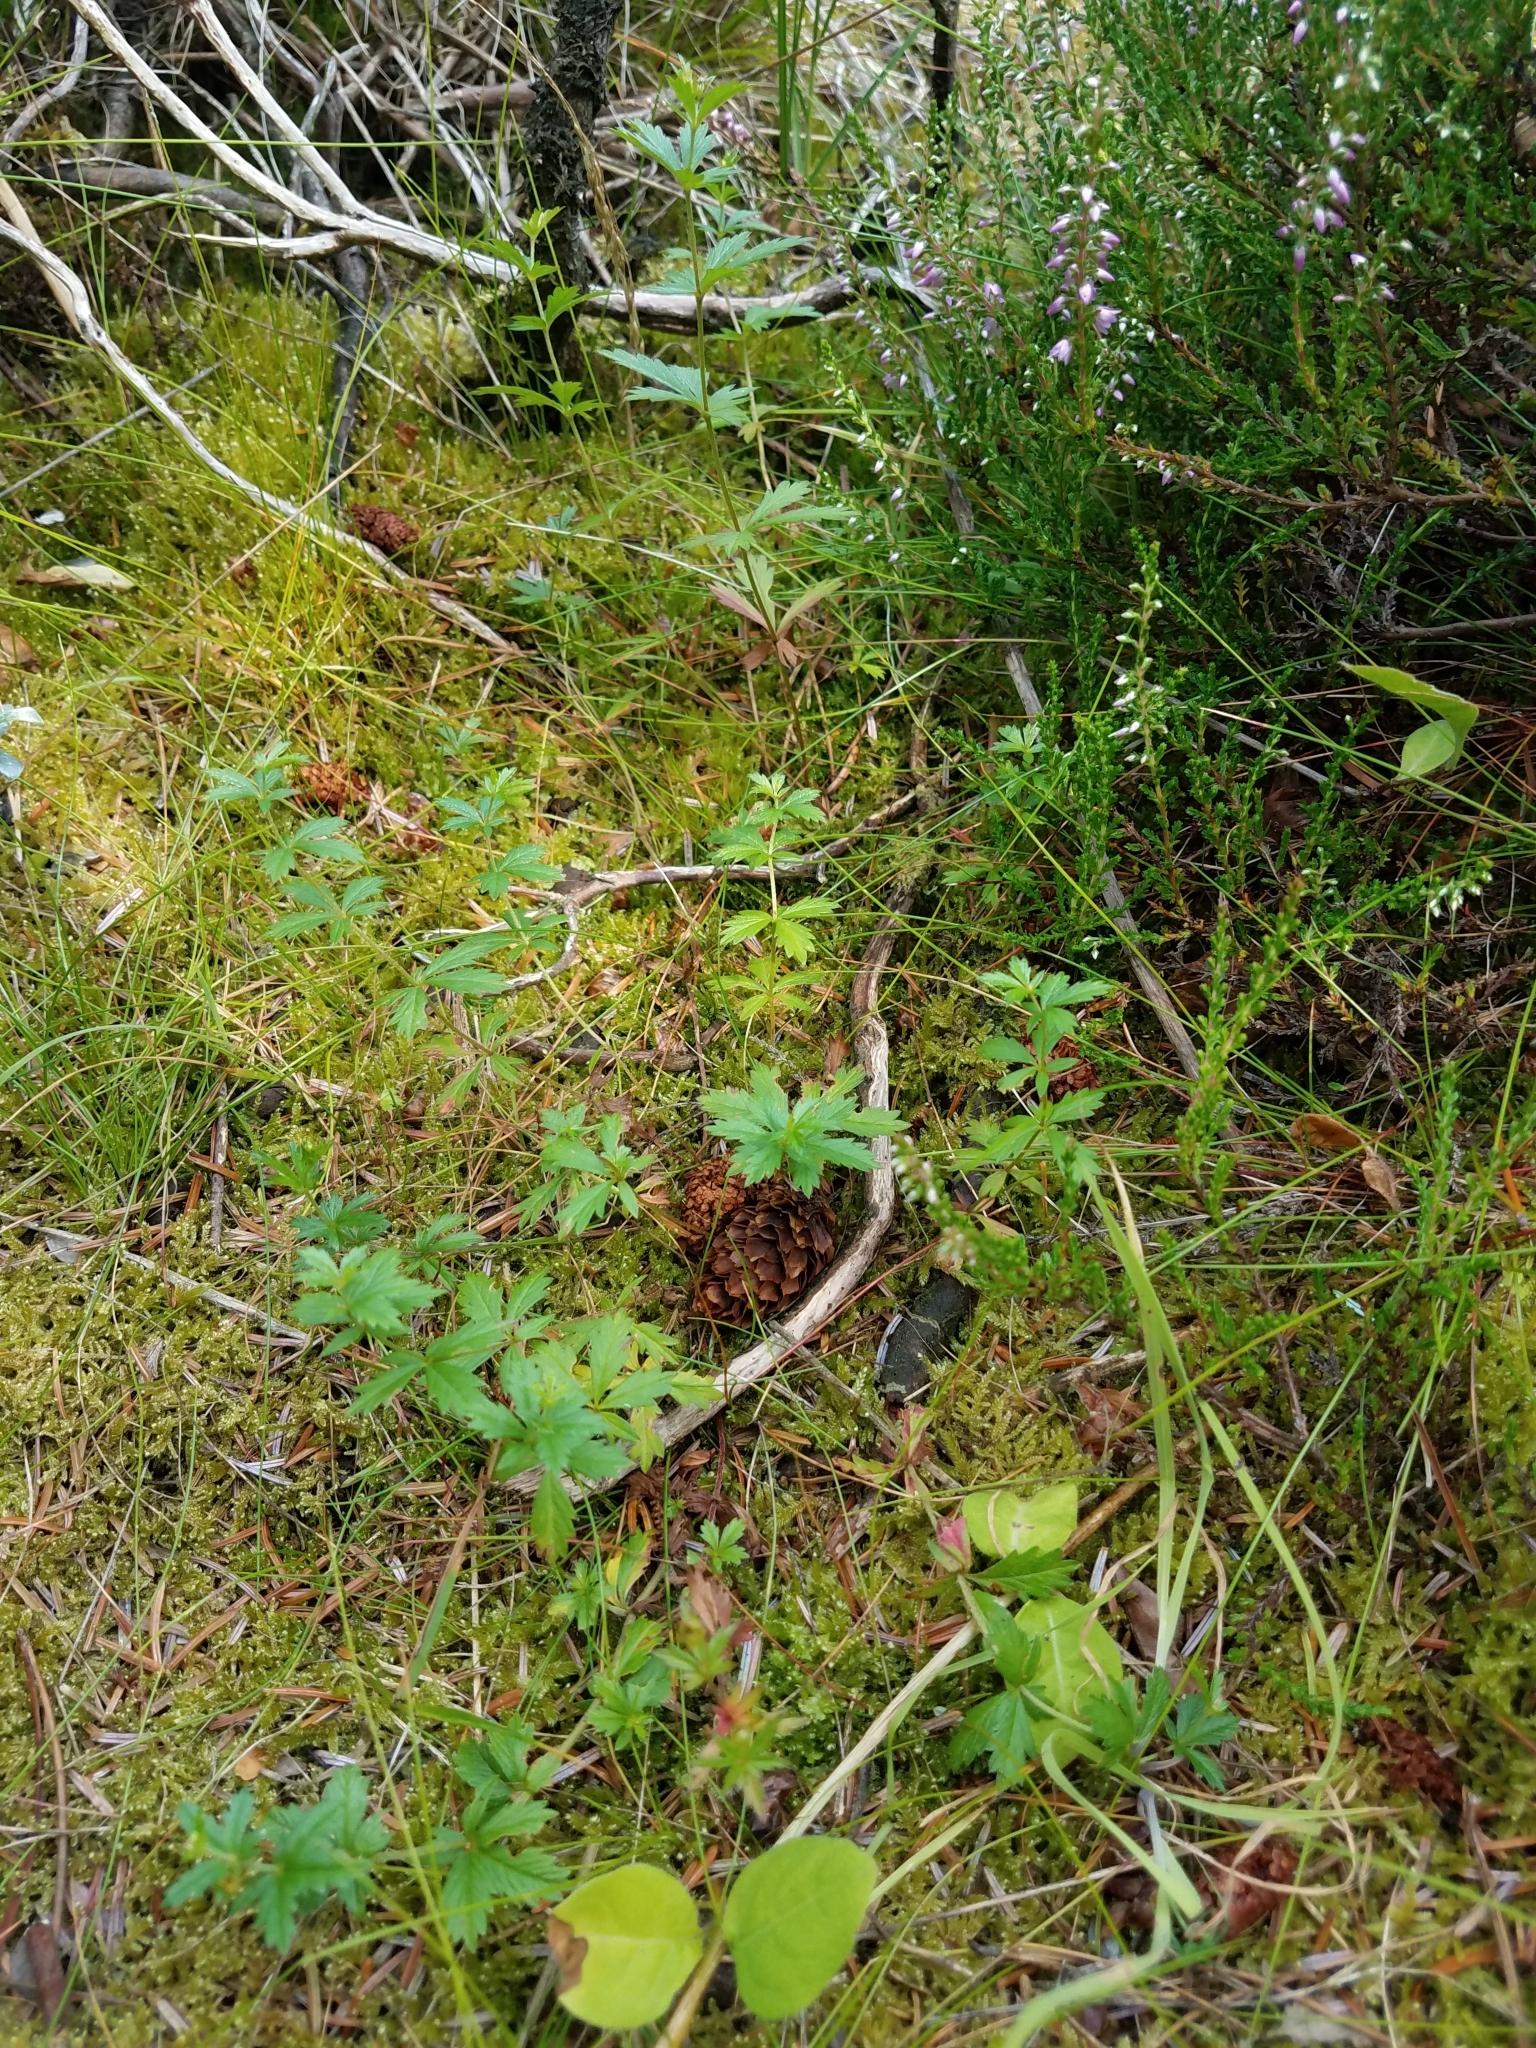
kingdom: Plantae
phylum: Tracheophyta
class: Magnoliopsida
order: Rosales
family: Rosaceae
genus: Potentilla
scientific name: Potentilla erecta
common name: Tormentil
